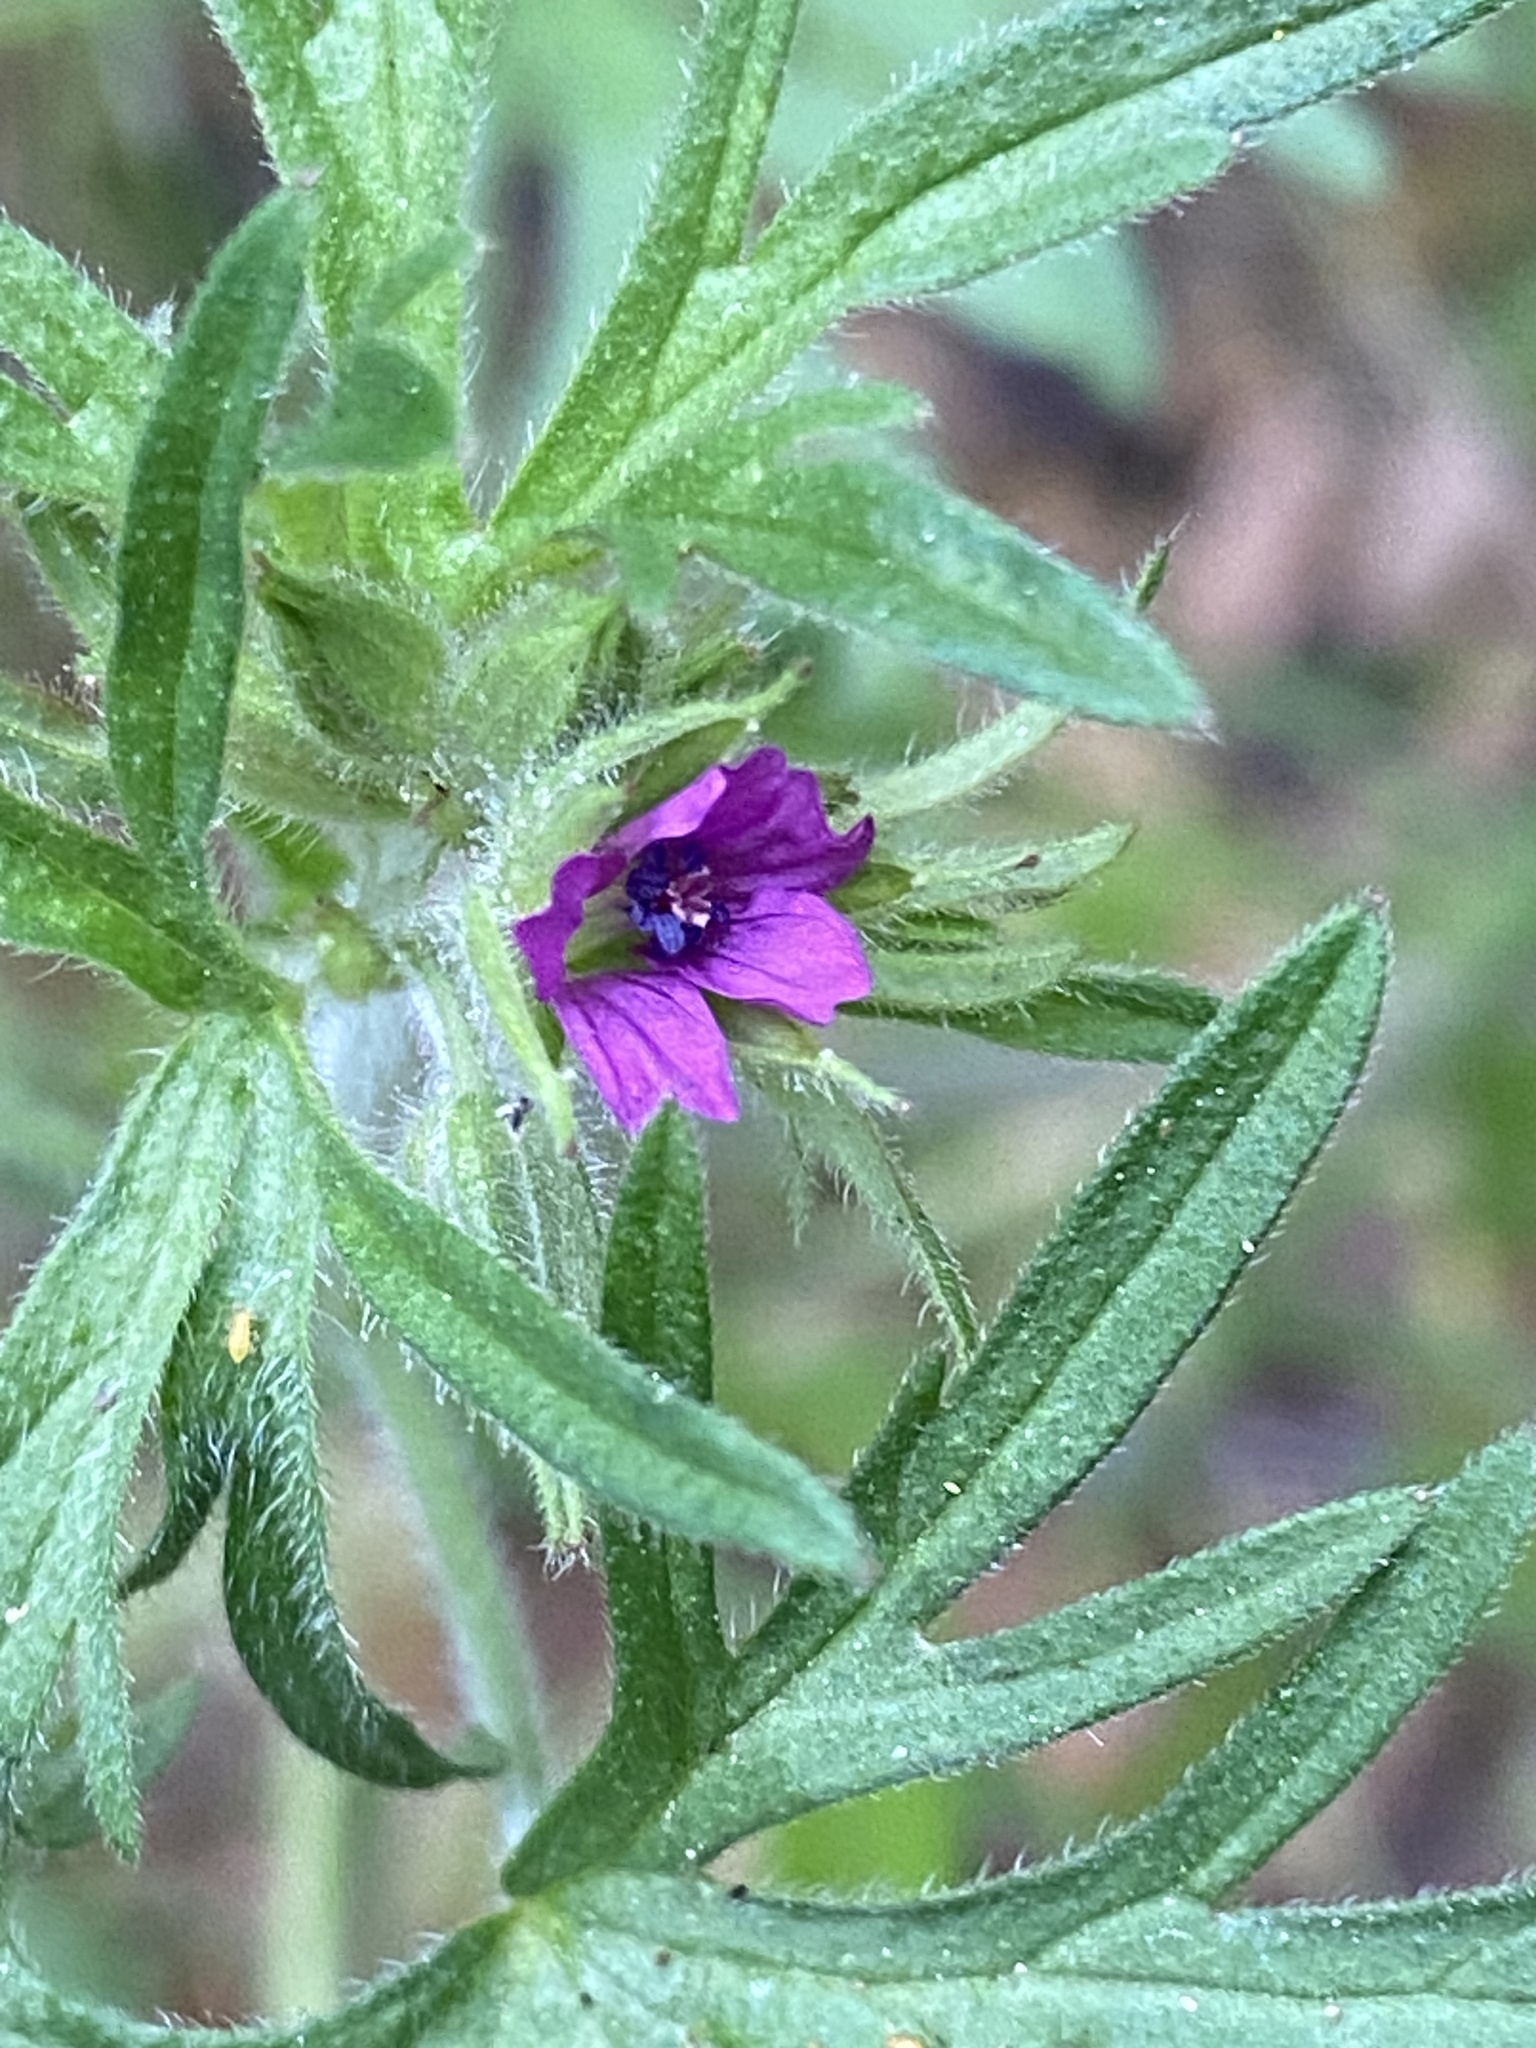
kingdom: Plantae
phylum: Tracheophyta
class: Magnoliopsida
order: Geraniales
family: Geraniaceae
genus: Geranium
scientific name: Geranium dissectum
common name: Cut-leaved crane's-bill
